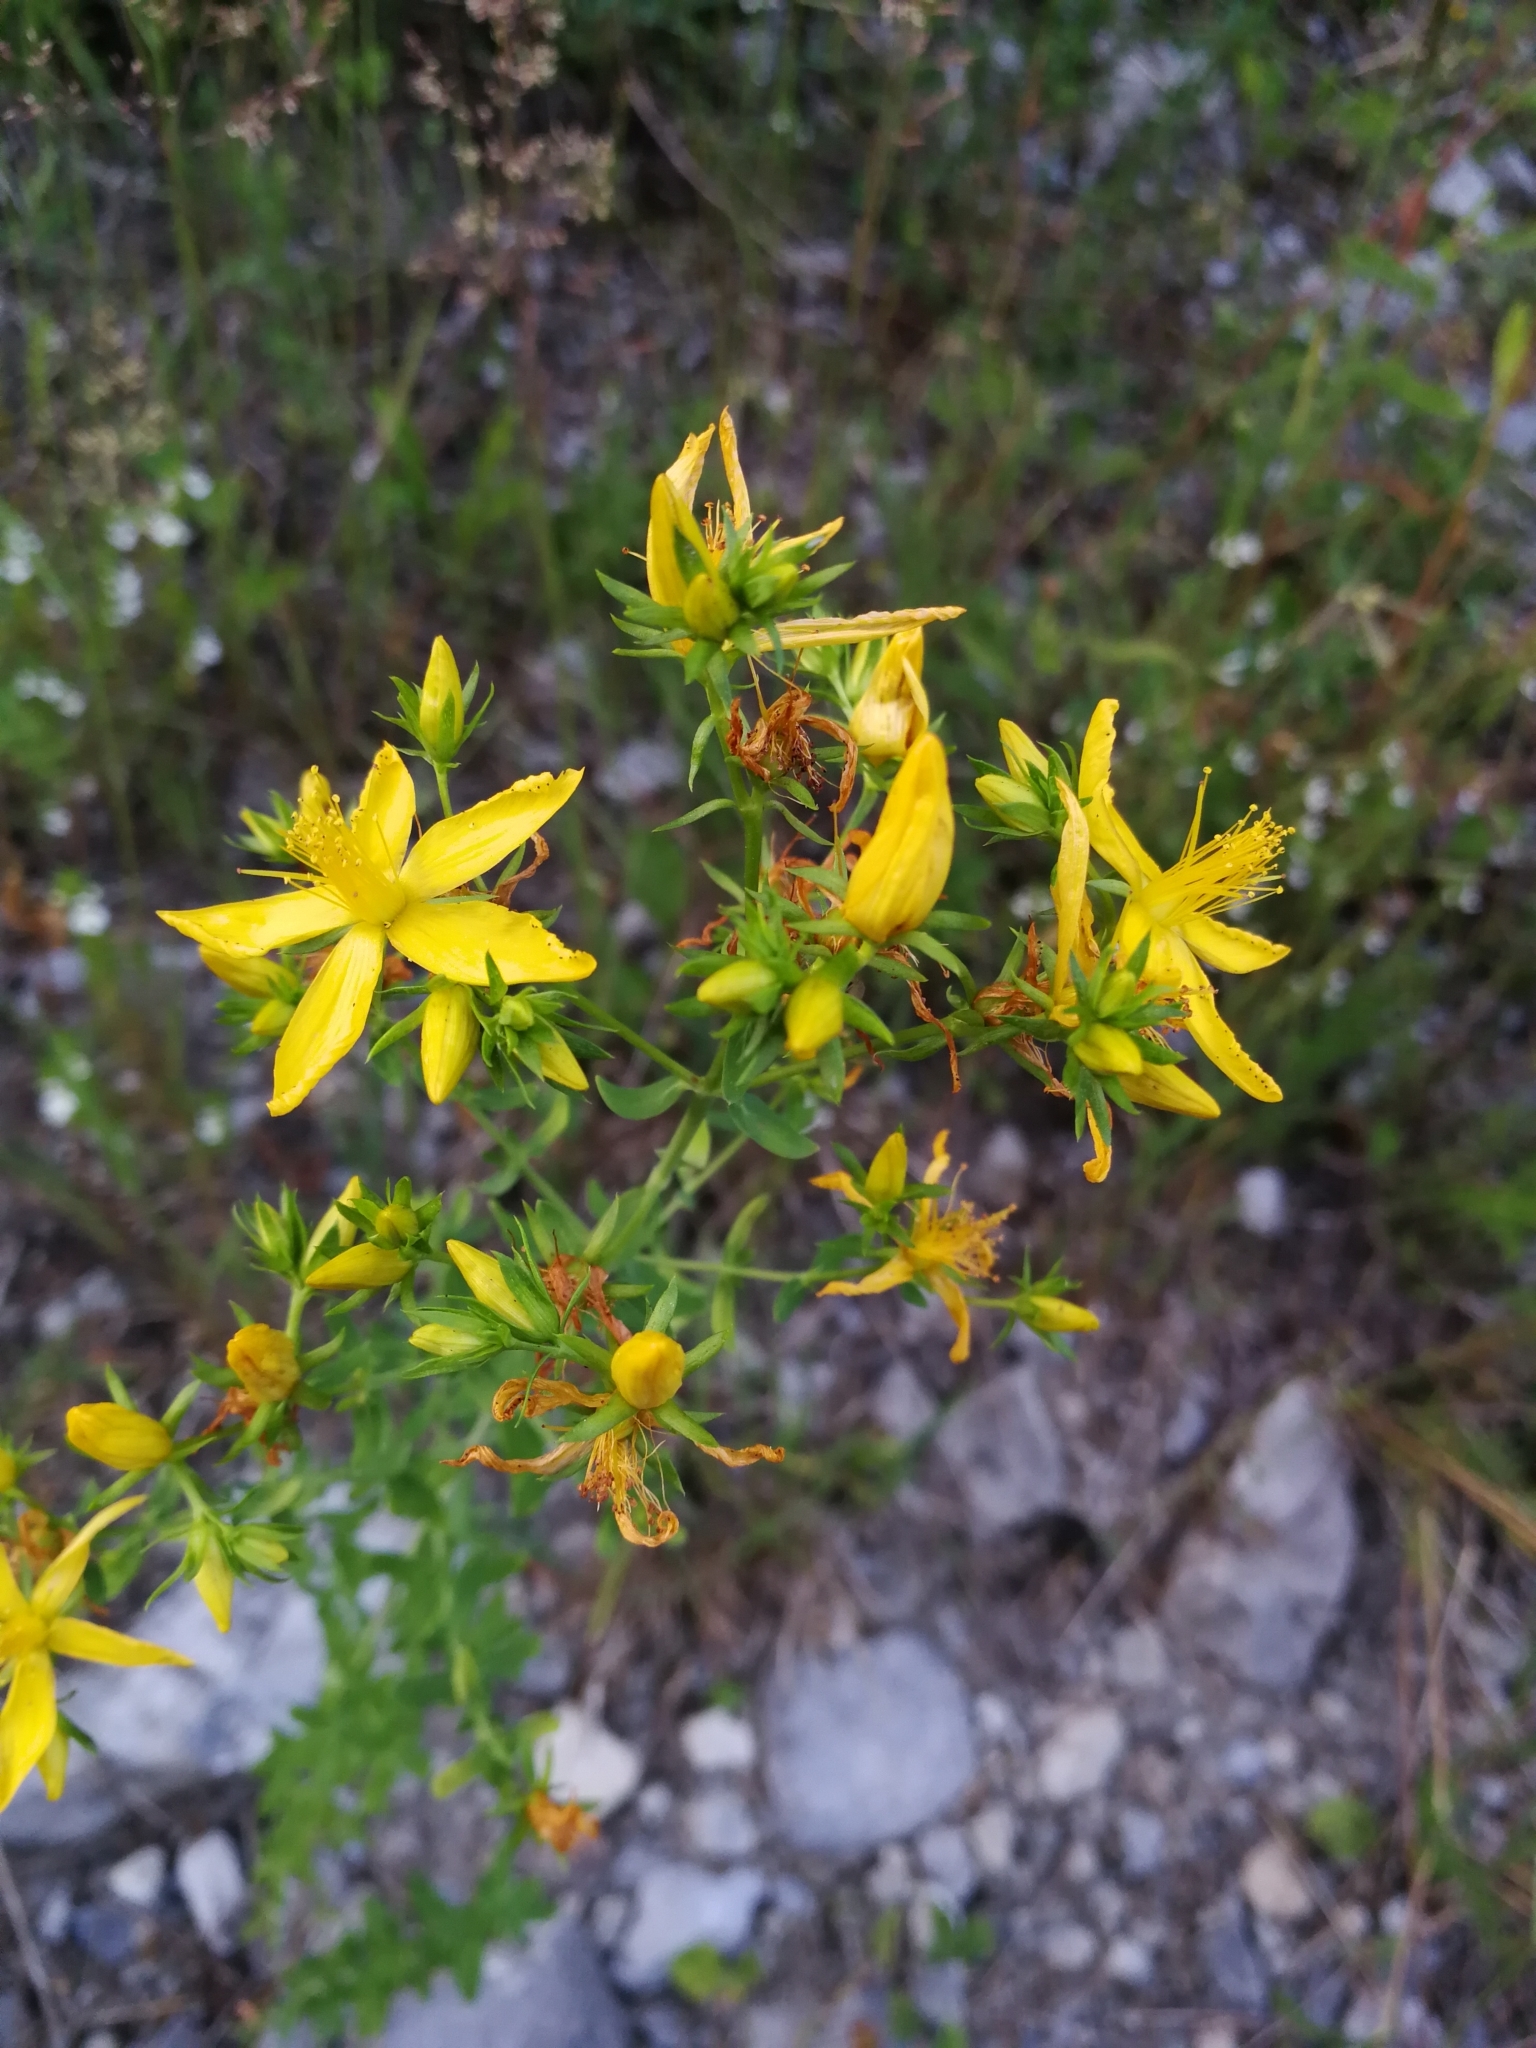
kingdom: Plantae
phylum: Tracheophyta
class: Magnoliopsida
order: Malpighiales
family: Hypericaceae
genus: Hypericum
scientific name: Hypericum perforatum
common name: Common st. johnswort
